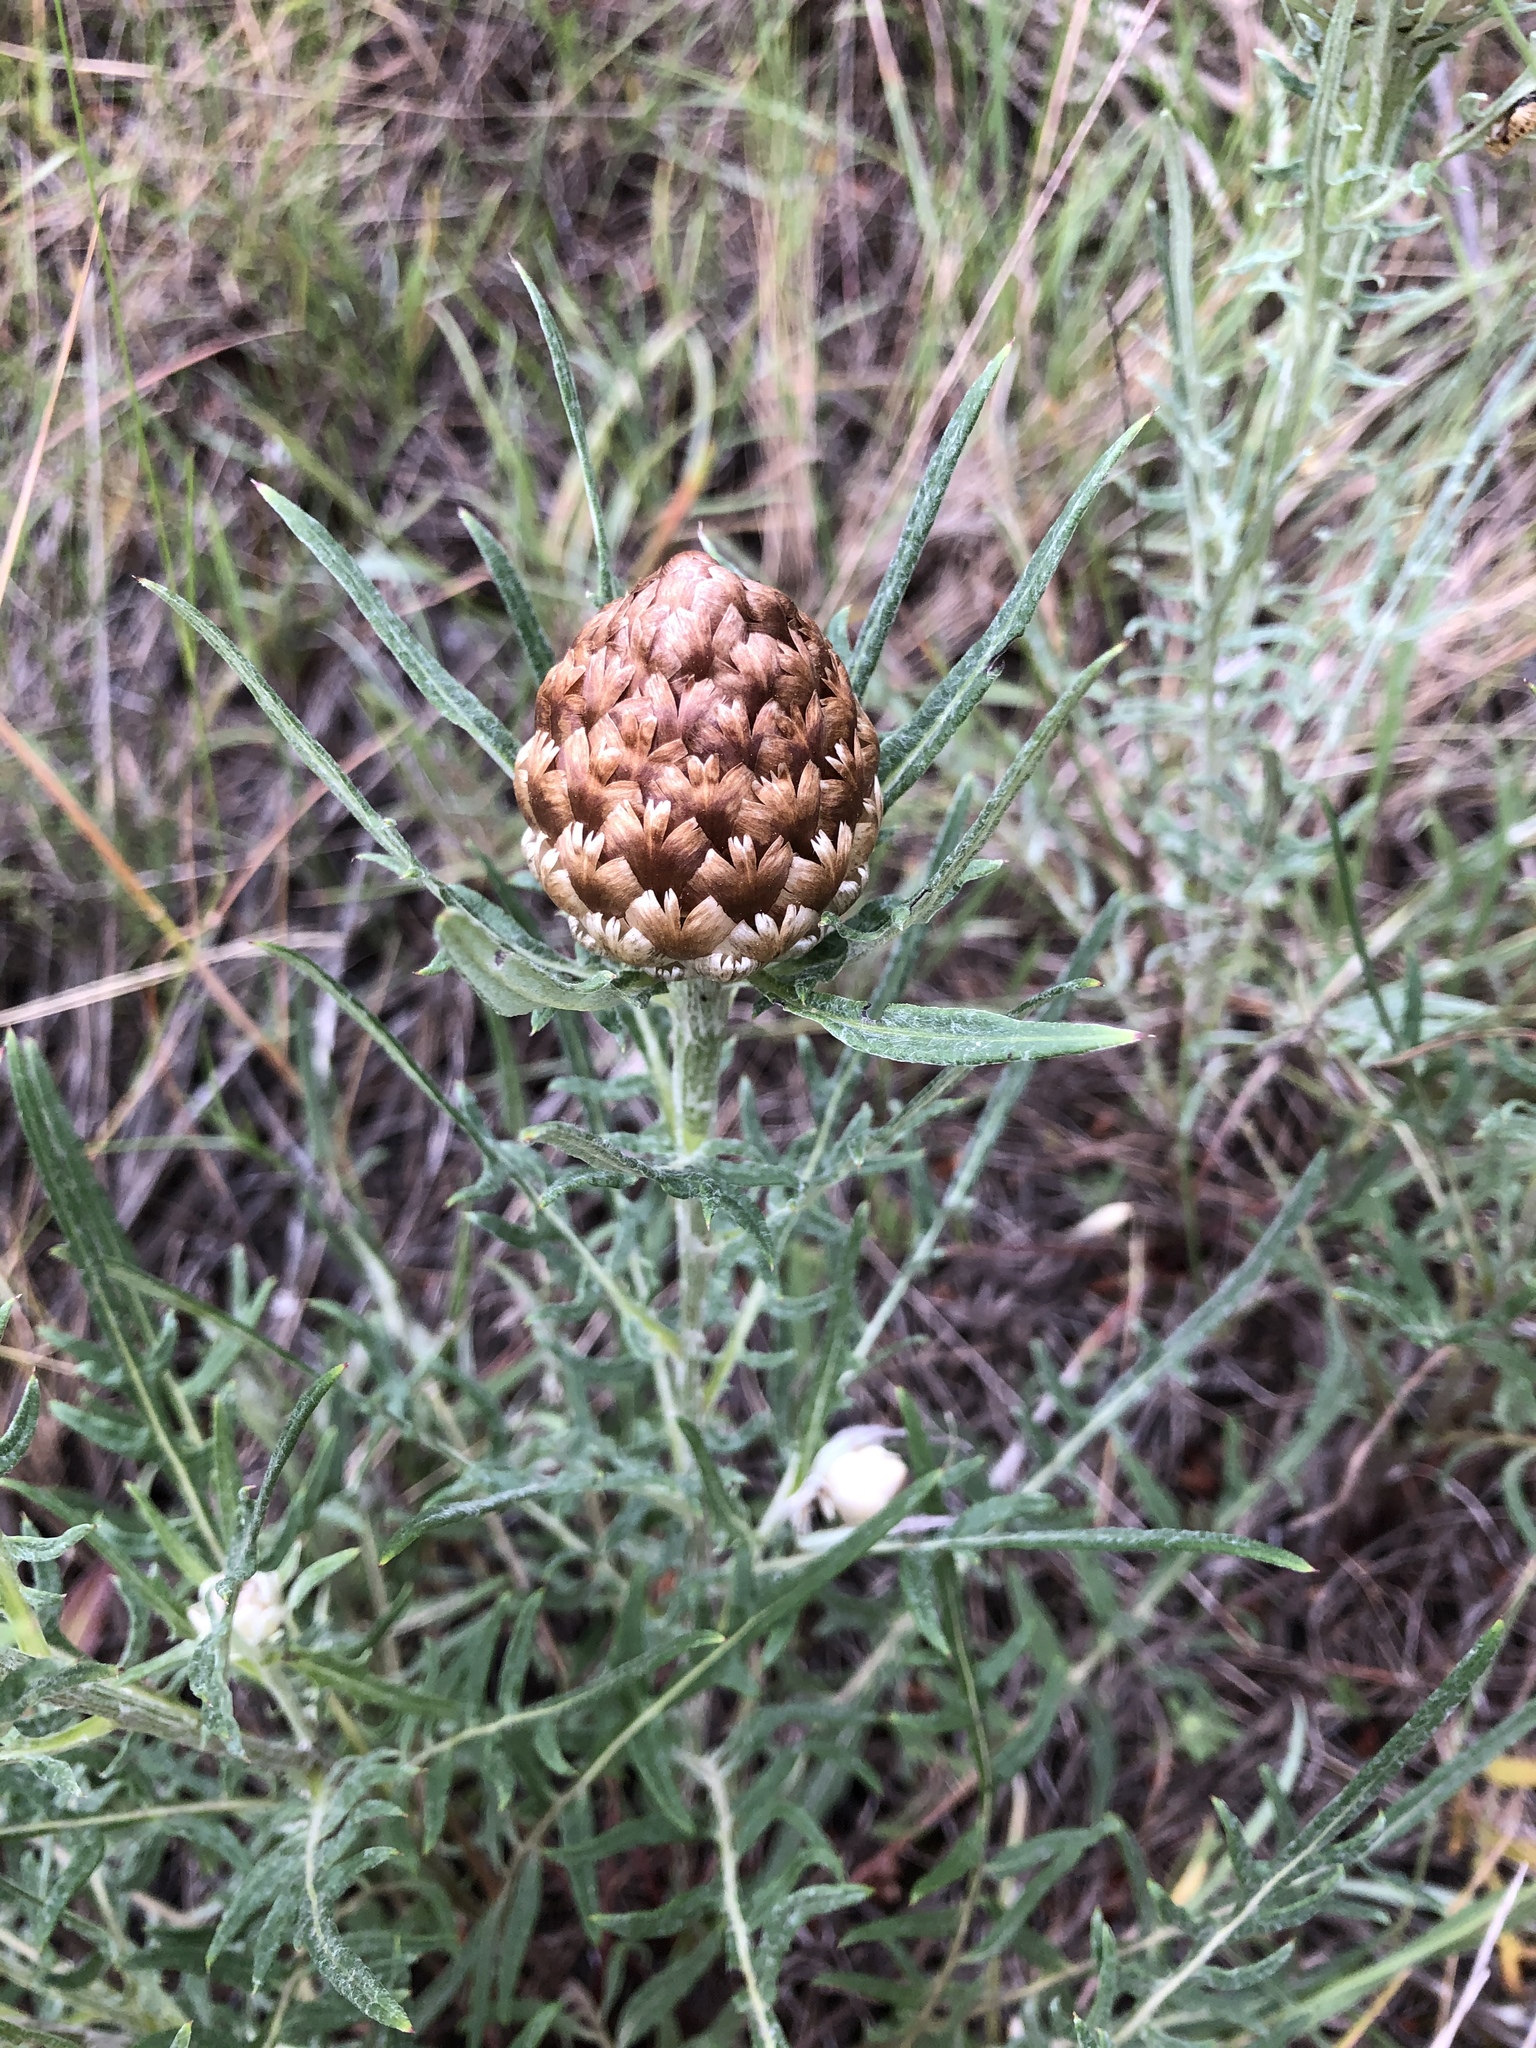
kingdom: Plantae
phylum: Tracheophyta
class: Magnoliopsida
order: Asterales
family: Asteraceae
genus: Leuzea
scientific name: Leuzea conifera
